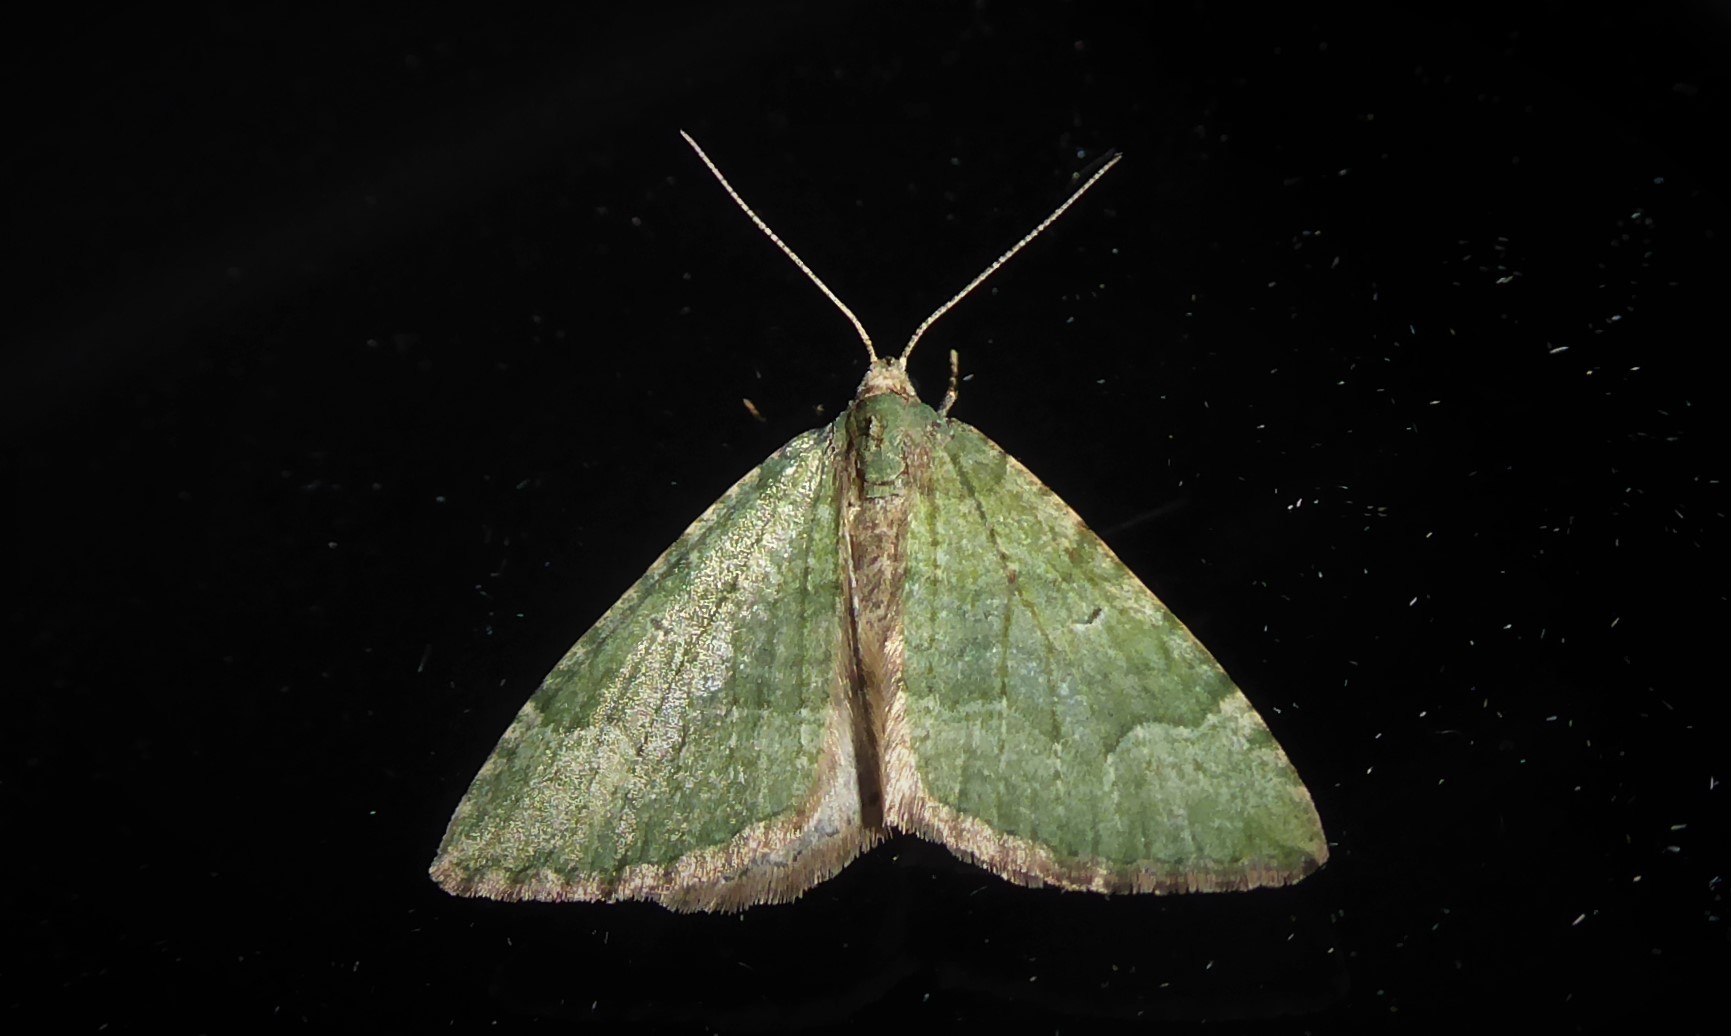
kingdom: Animalia
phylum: Arthropoda
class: Insecta
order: Lepidoptera
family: Geometridae
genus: Epyaxa
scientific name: Epyaxa rosearia
